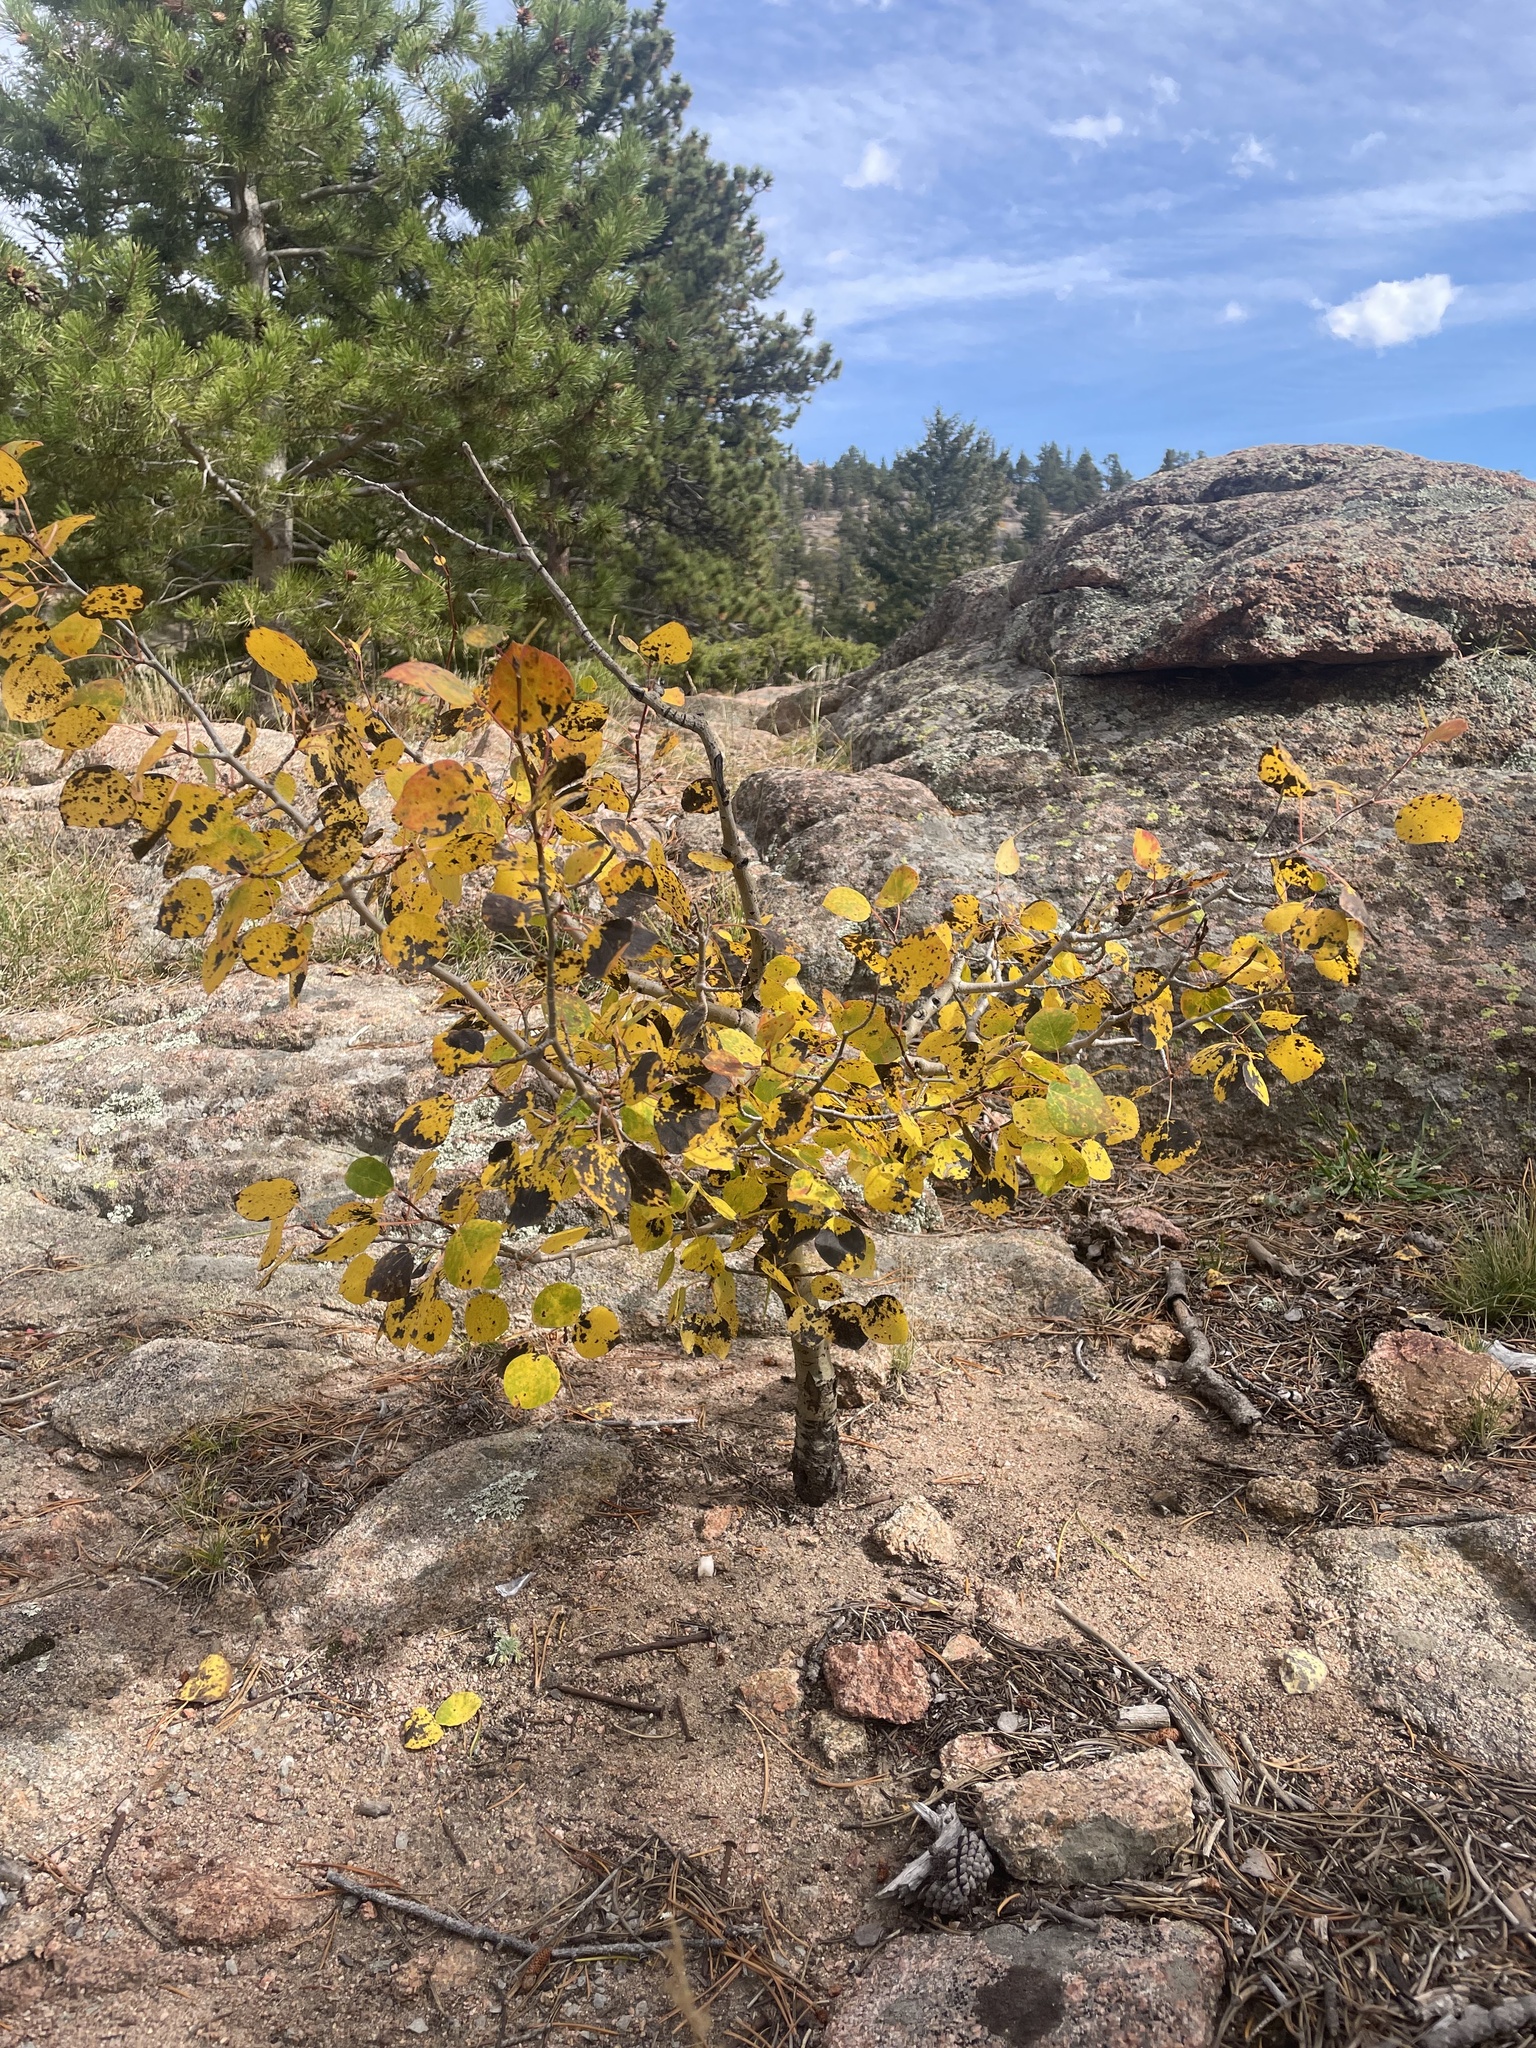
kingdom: Plantae
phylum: Tracheophyta
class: Magnoliopsida
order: Malpighiales
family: Salicaceae
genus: Populus
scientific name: Populus tremuloides
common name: Quaking aspen
